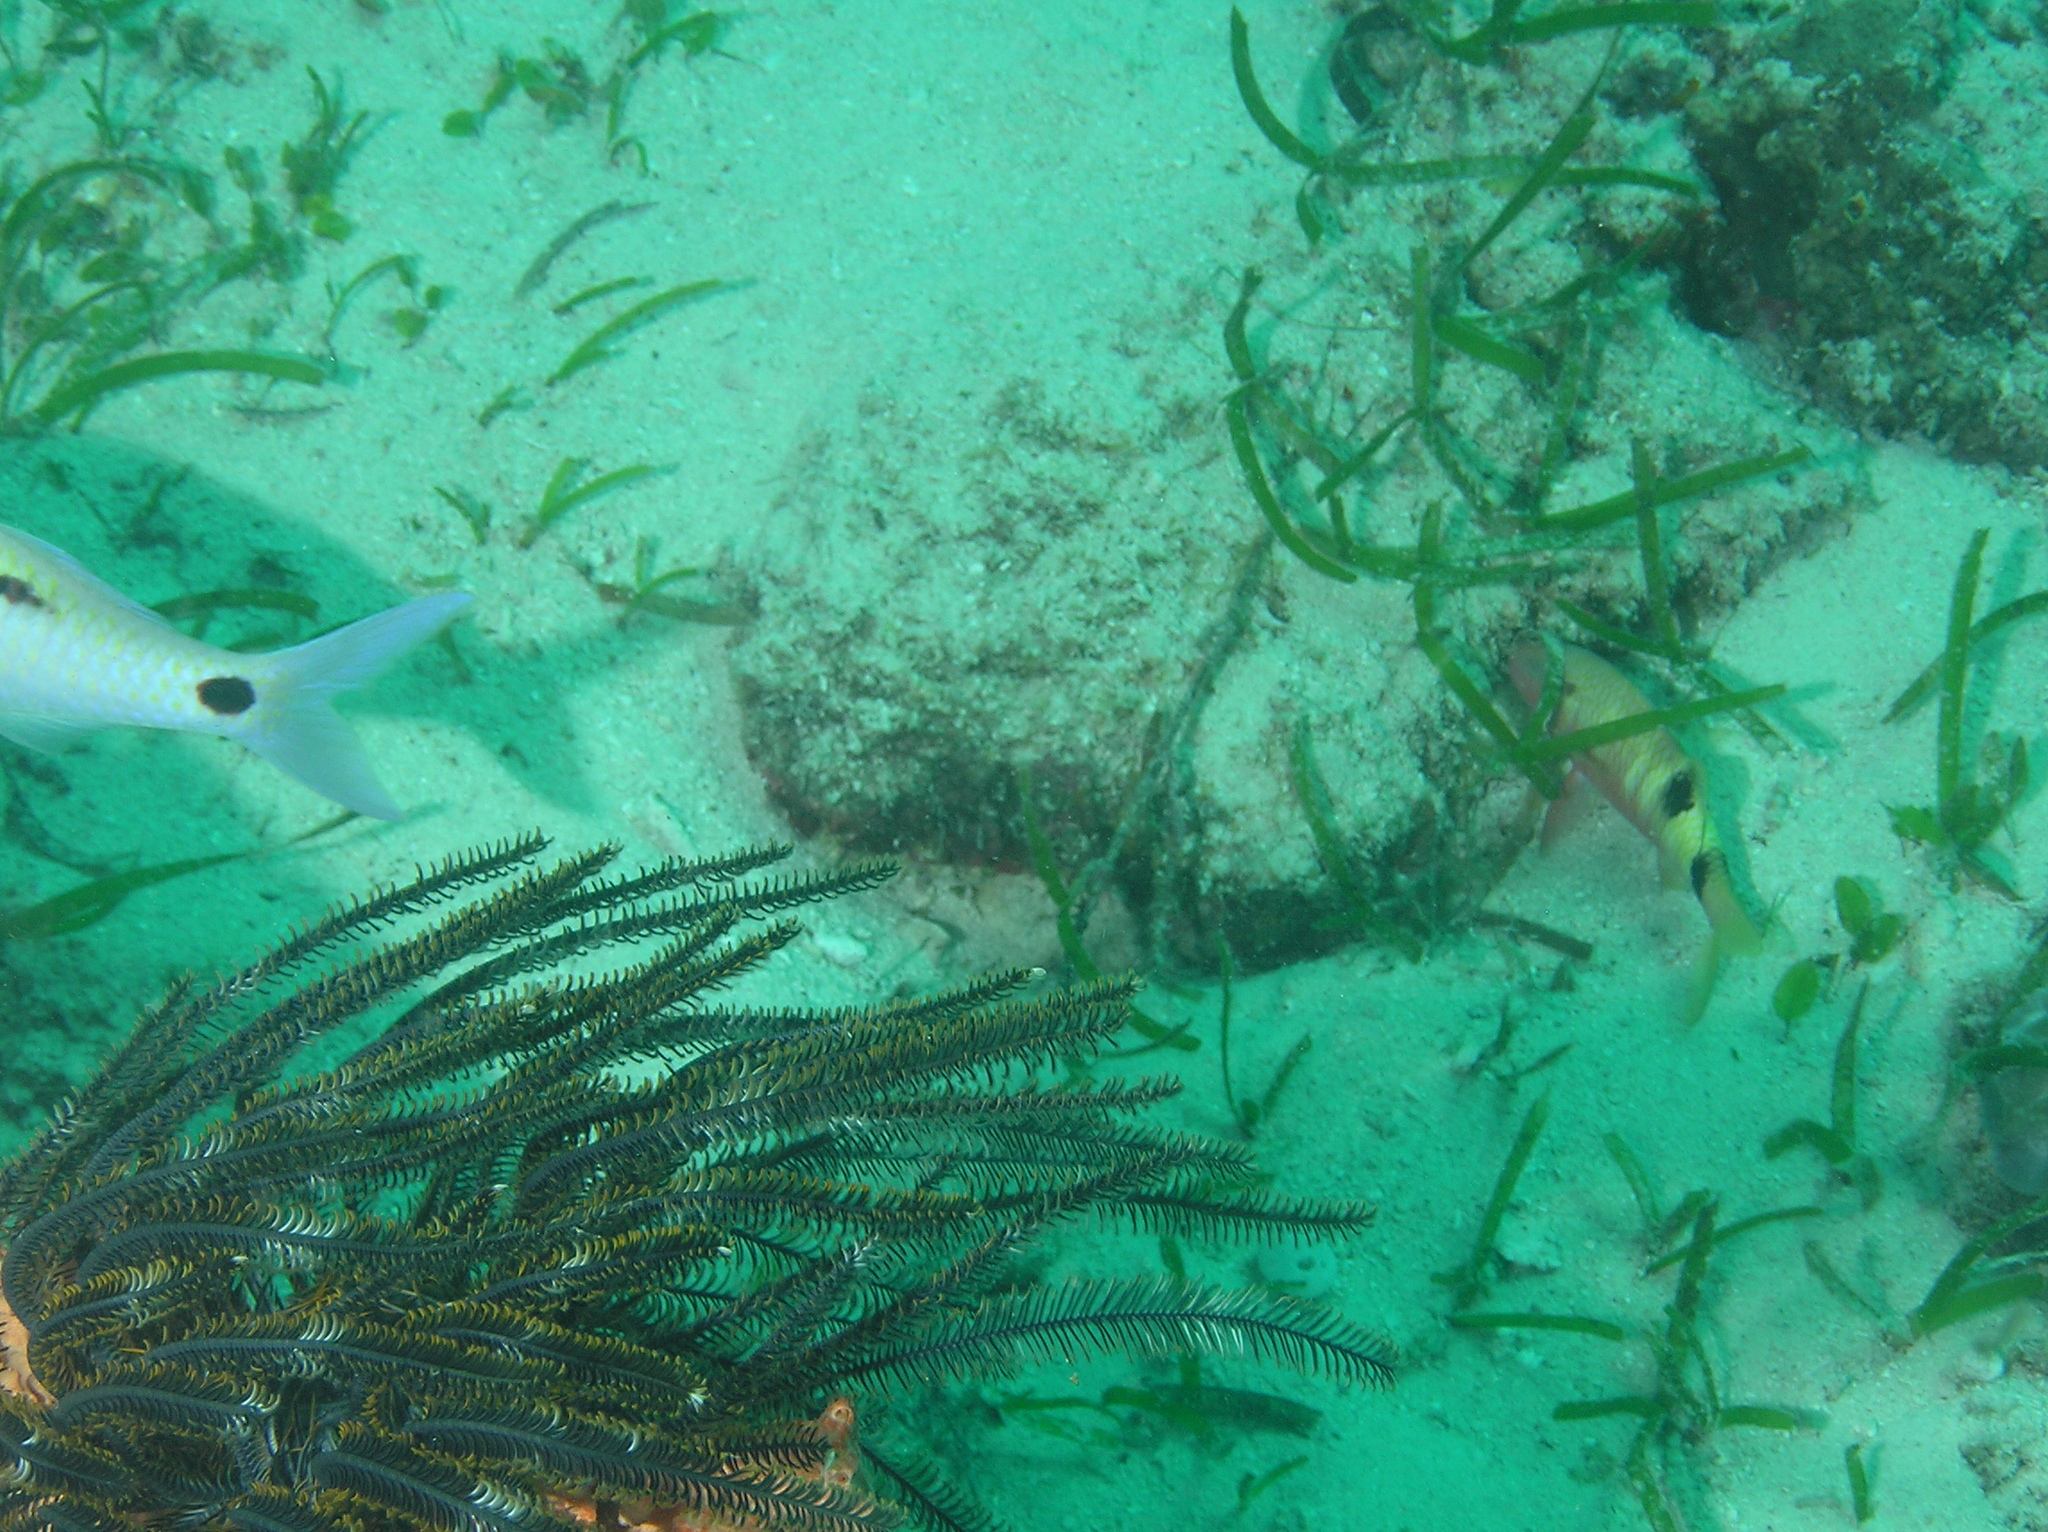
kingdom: Animalia
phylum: Chordata
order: Perciformes
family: Mullidae
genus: Parupeneus
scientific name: Parupeneus multifasciatus
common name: Manybar goatfish
